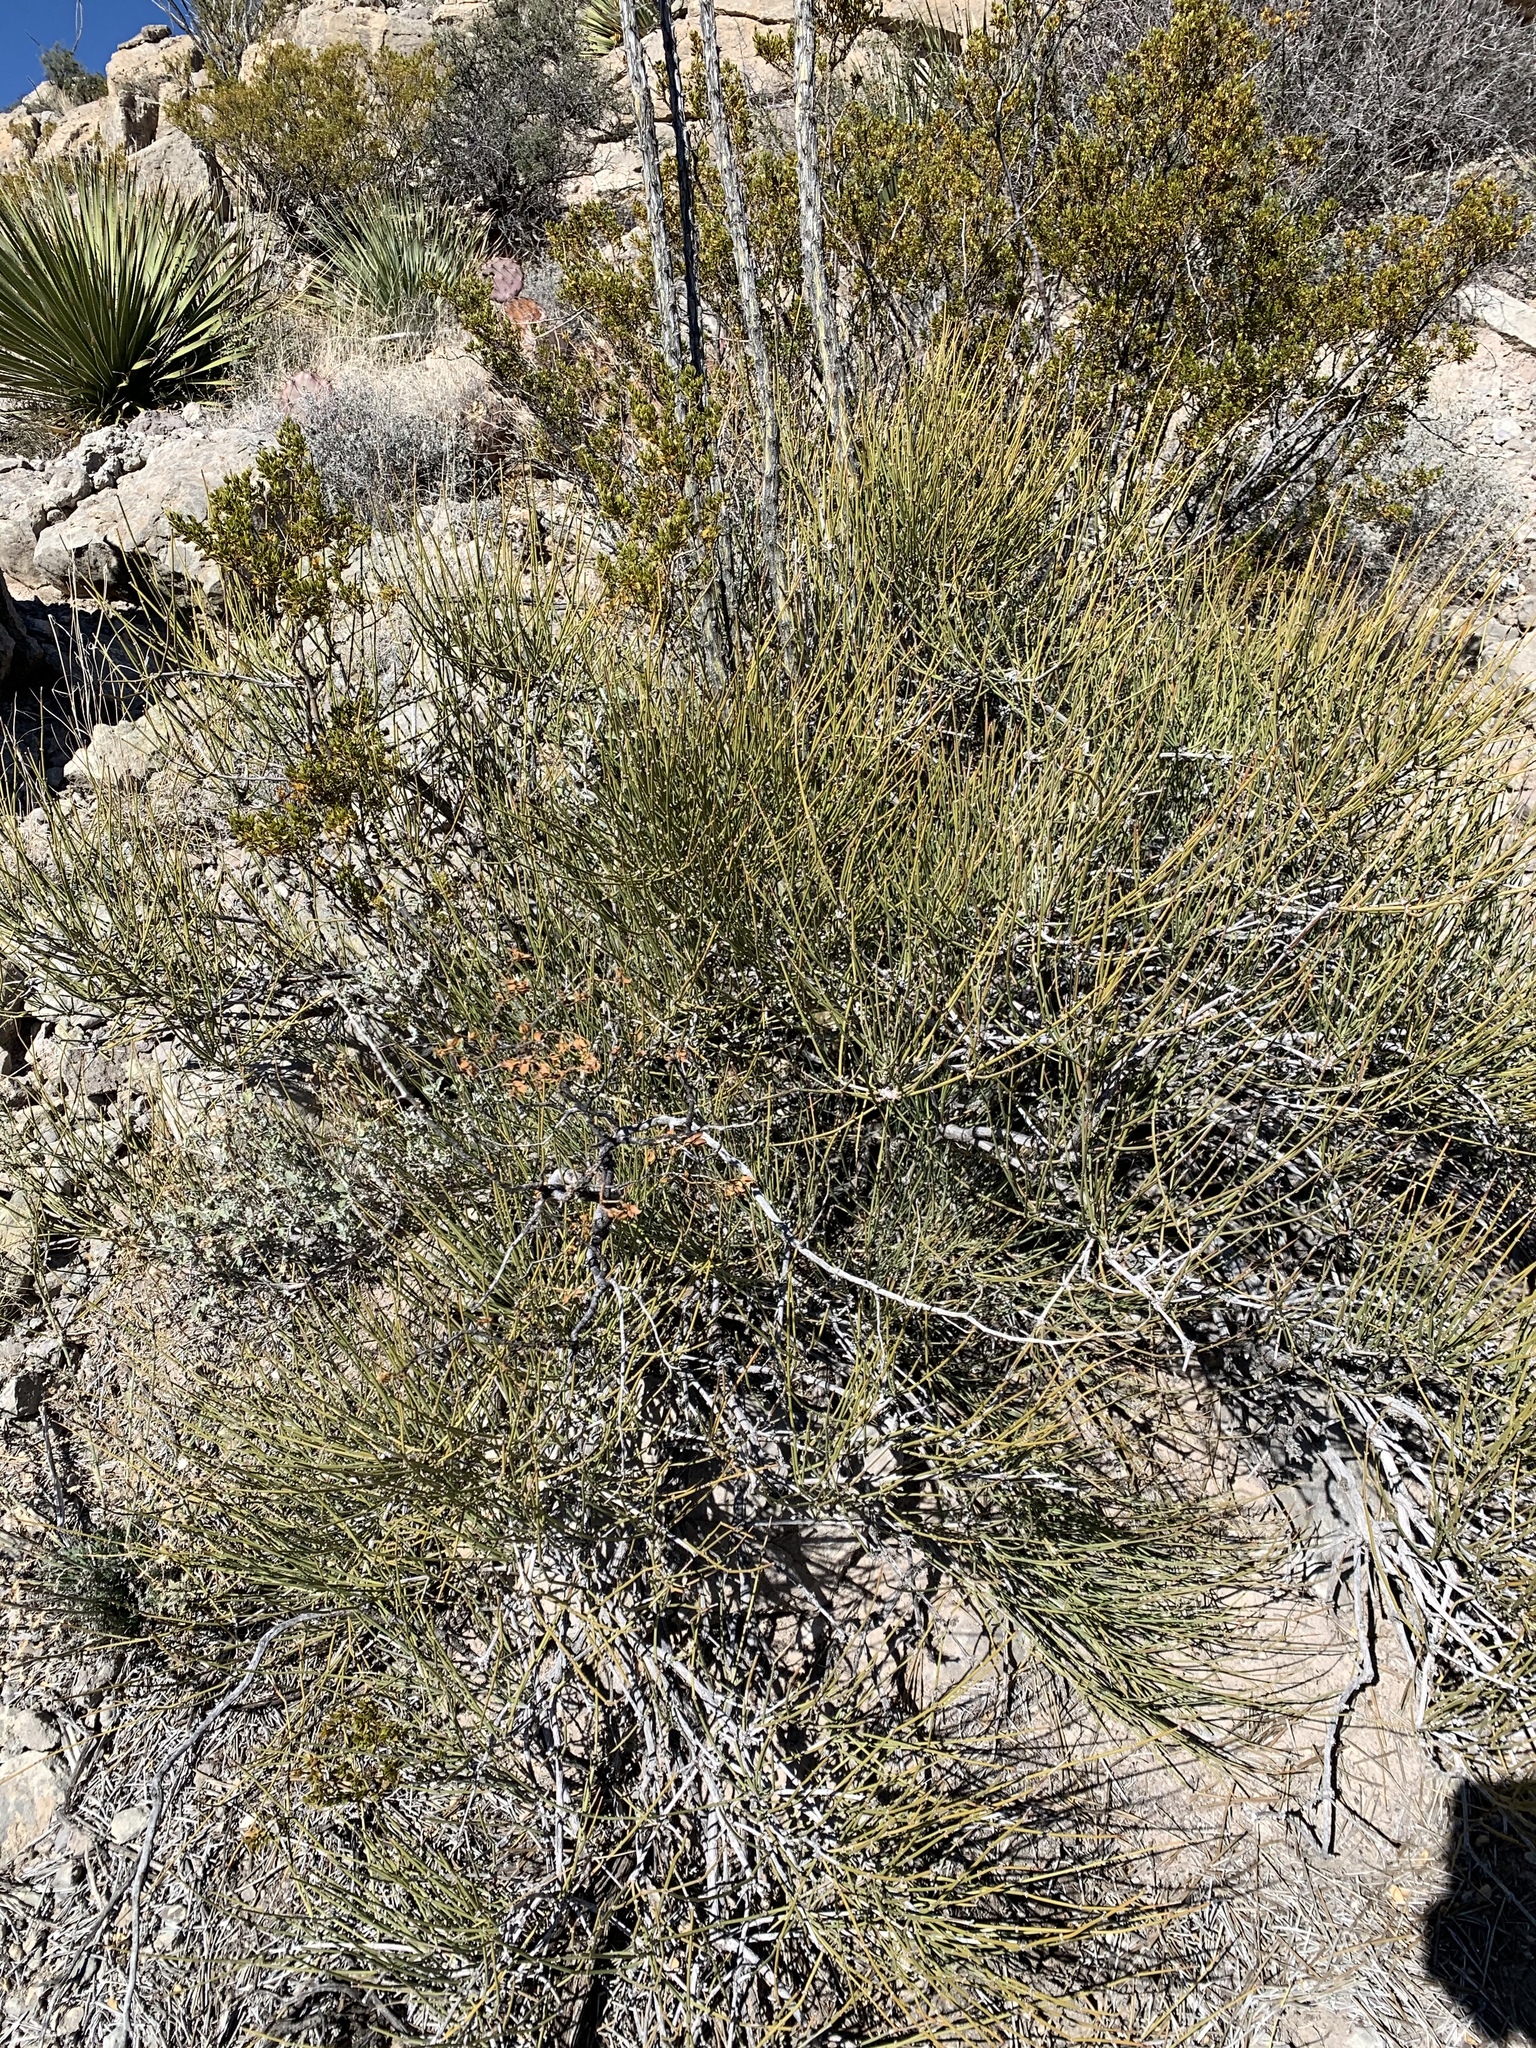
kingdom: Plantae
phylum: Tracheophyta
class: Gnetopsida
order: Ephedrales
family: Ephedraceae
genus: Ephedra
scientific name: Ephedra trifurca
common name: Mexican-tea
